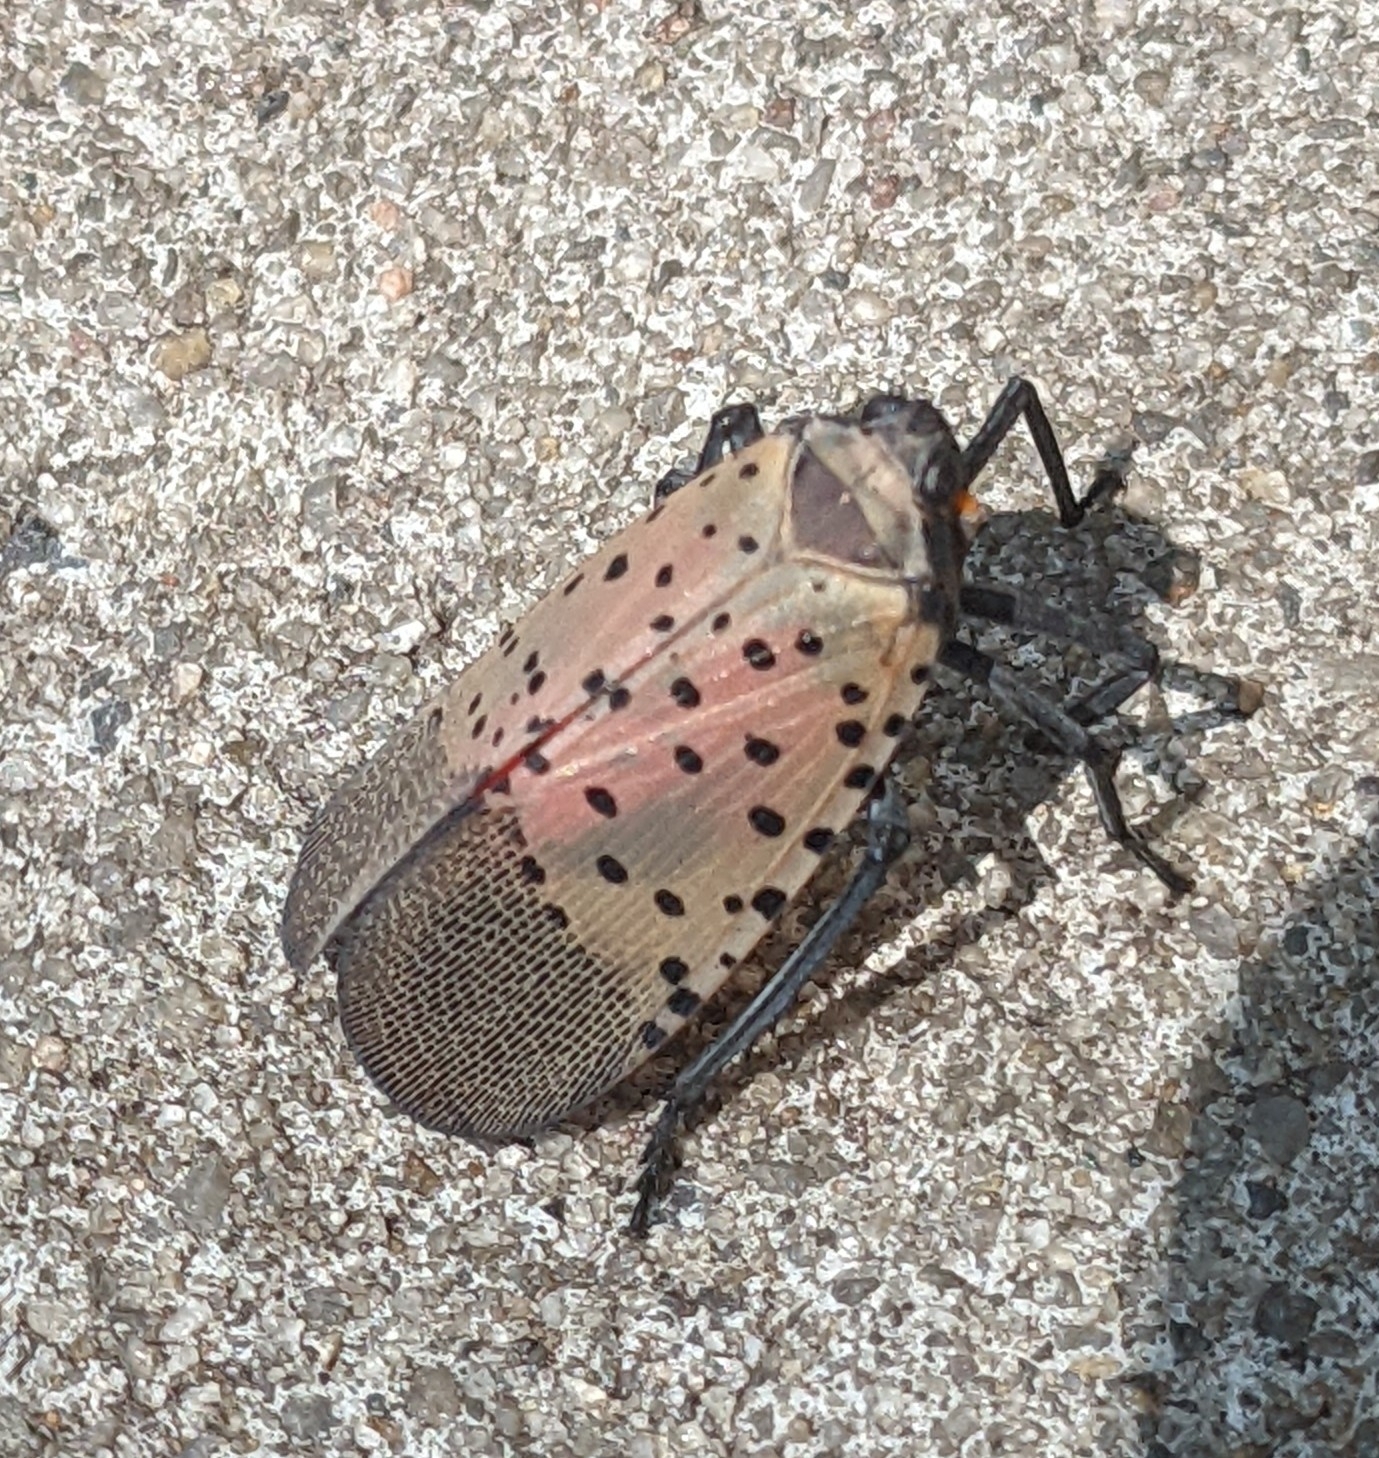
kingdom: Animalia
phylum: Arthropoda
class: Insecta
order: Hemiptera
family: Fulgoridae
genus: Lycorma
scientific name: Lycorma delicatula
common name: Spotted lanternfly
